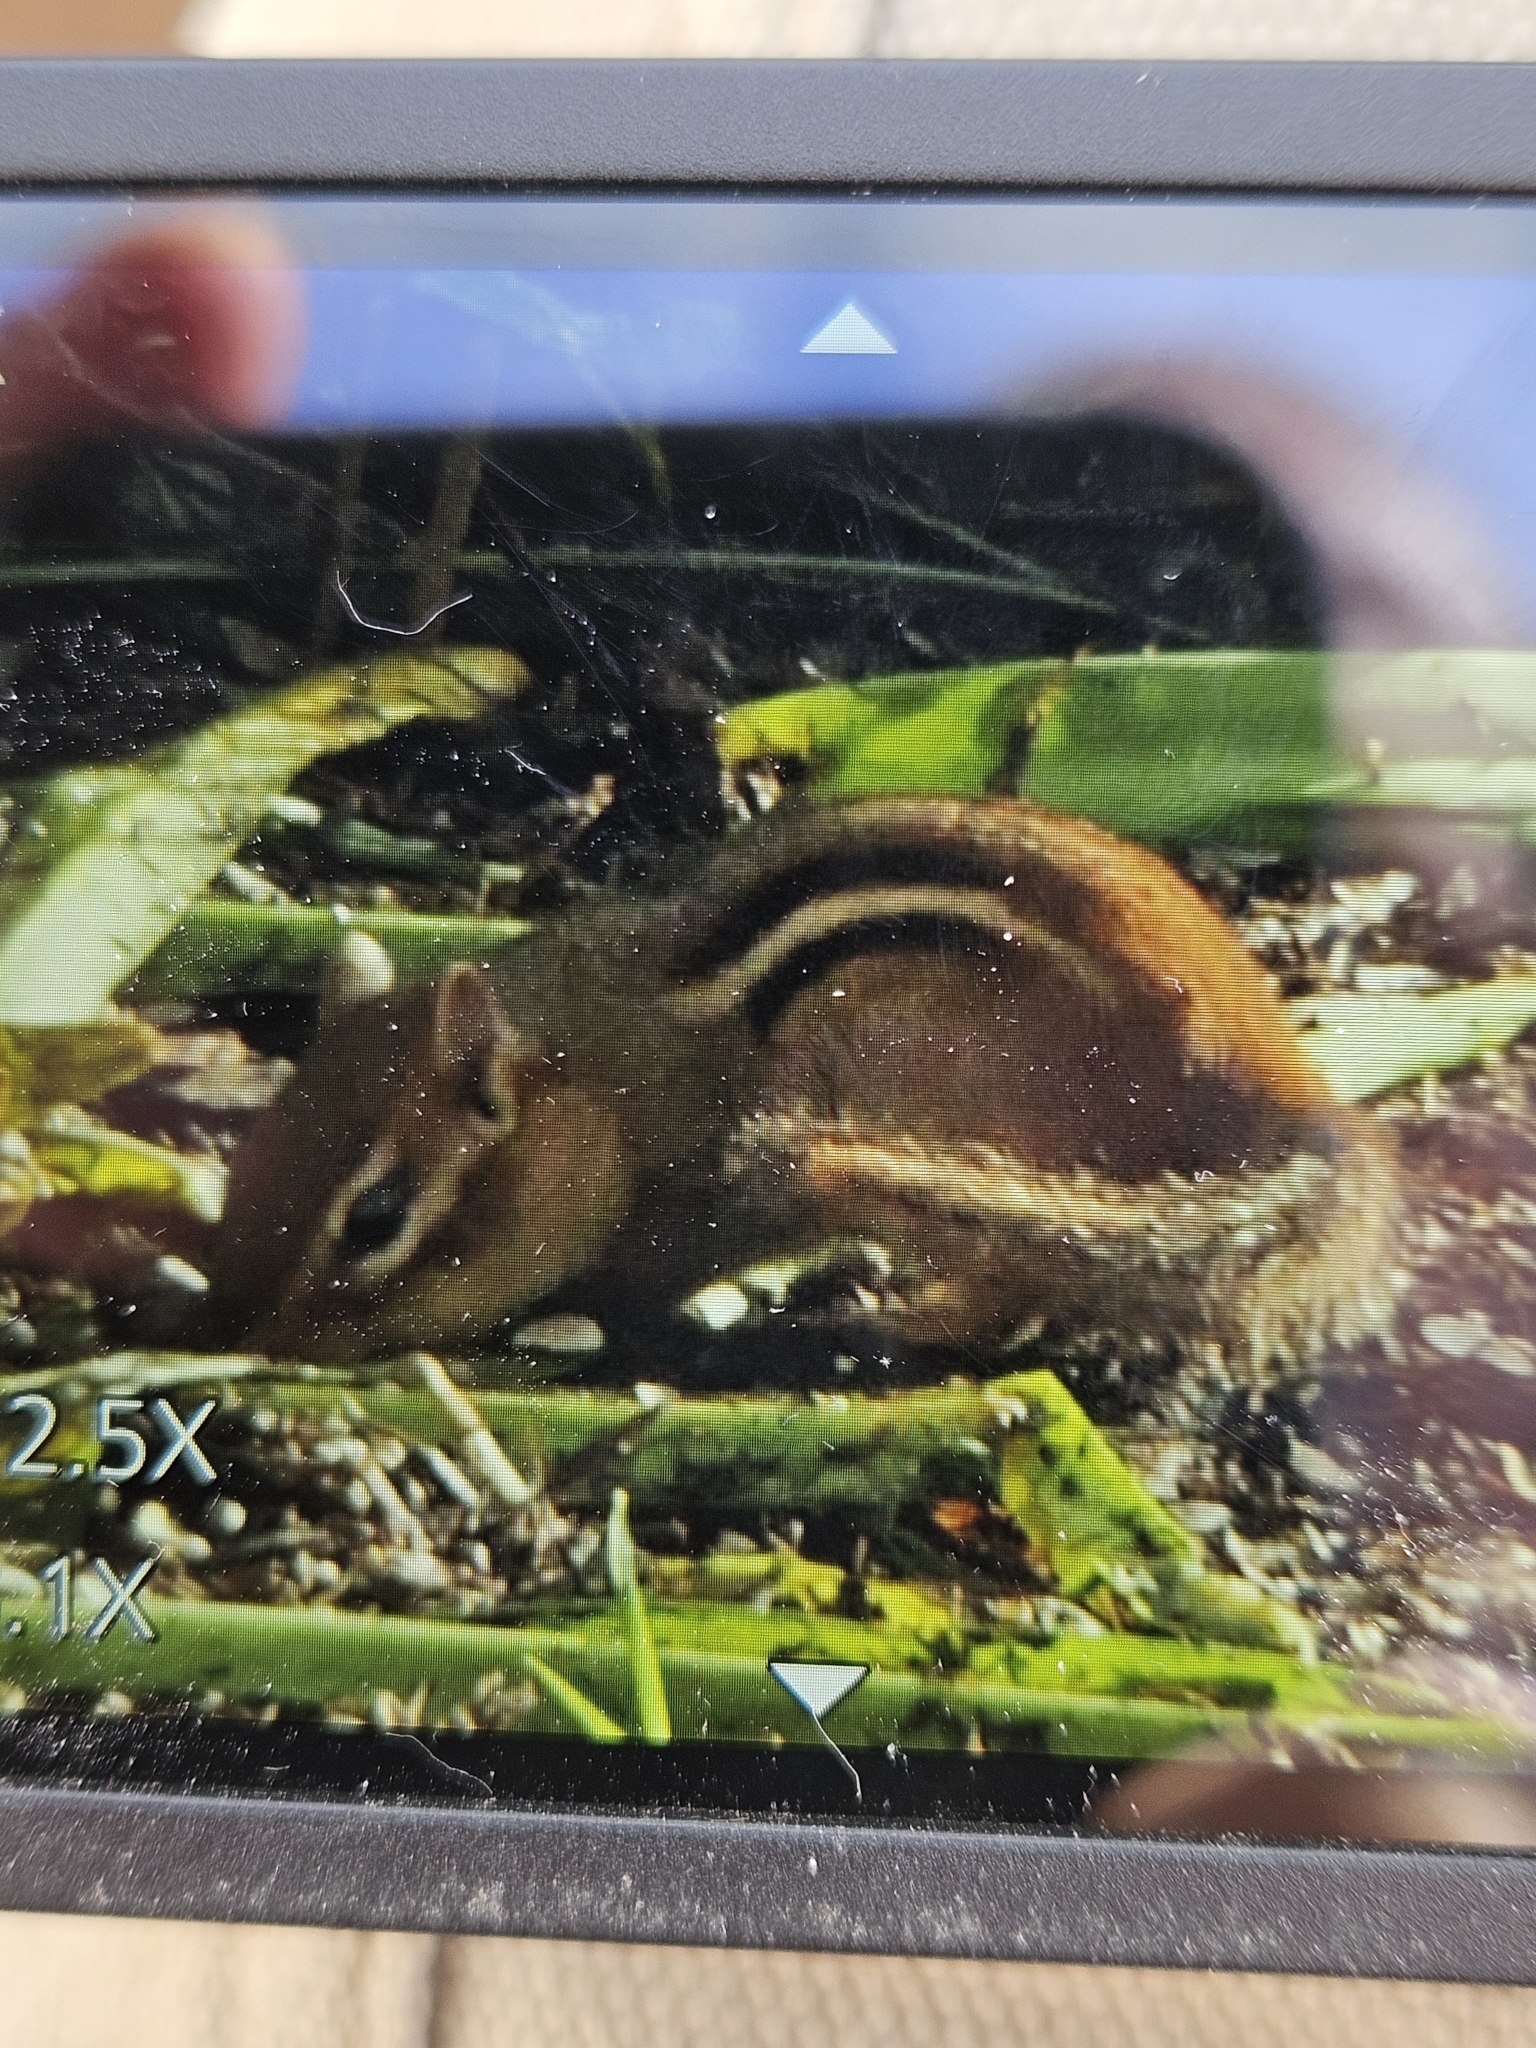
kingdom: Animalia
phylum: Chordata
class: Mammalia
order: Rodentia
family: Sciuridae
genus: Tamias
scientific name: Tamias striatus
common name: Eastern chipmunk
